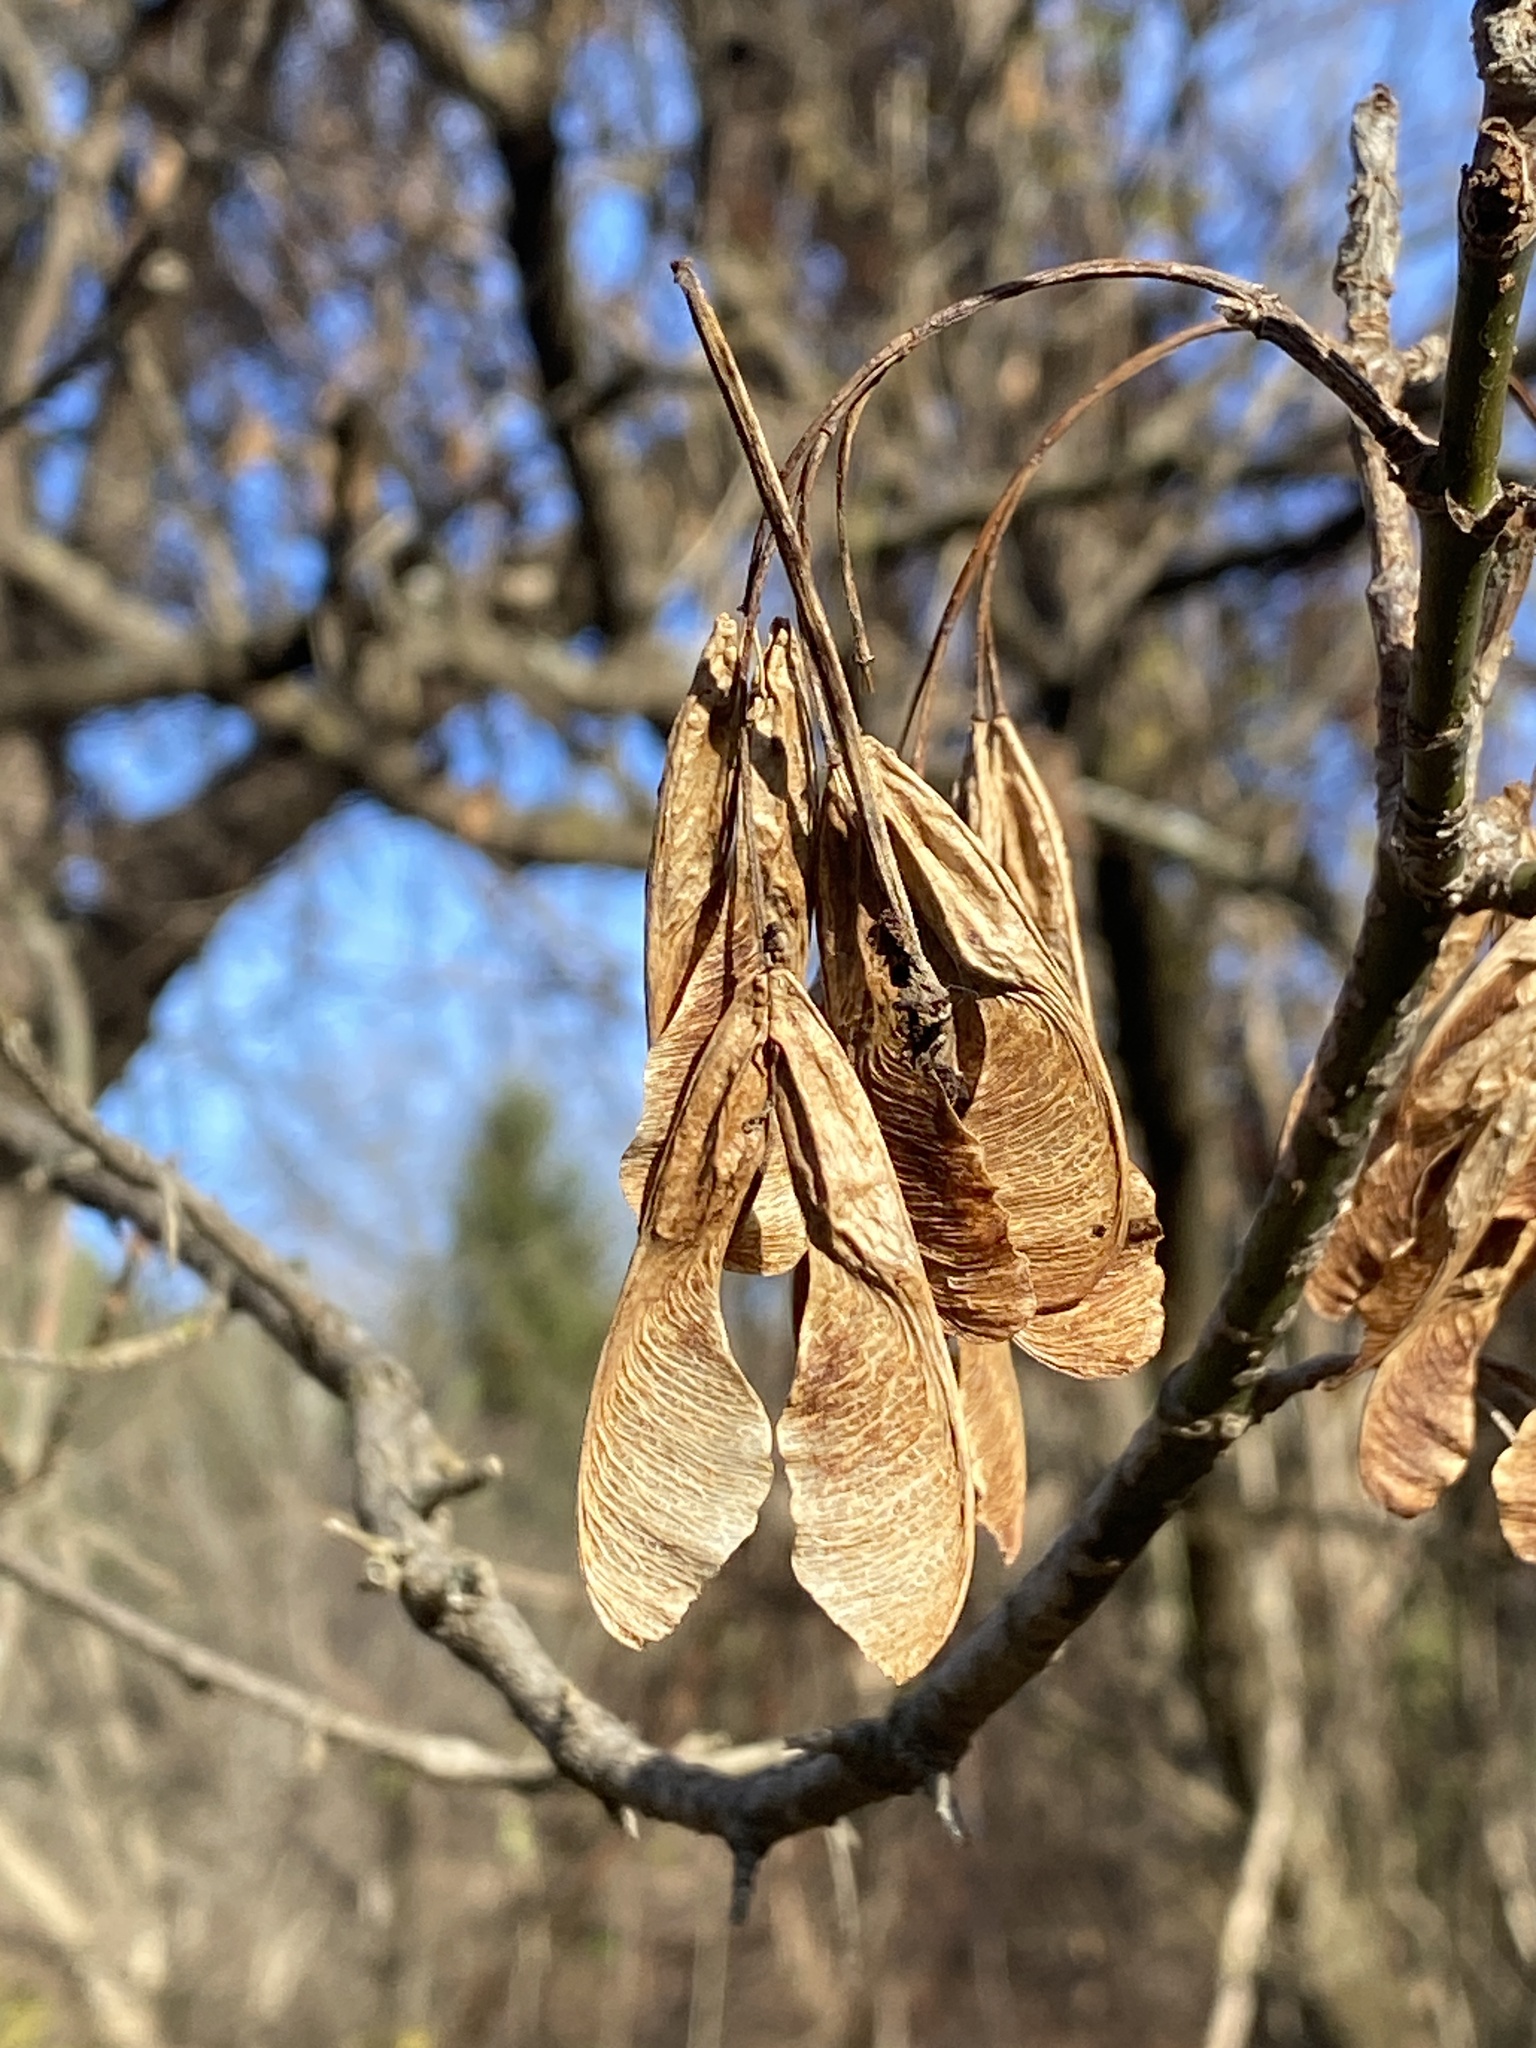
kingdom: Plantae
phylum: Tracheophyta
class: Magnoliopsida
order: Sapindales
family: Sapindaceae
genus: Acer
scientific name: Acer negundo
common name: Ashleaf maple
